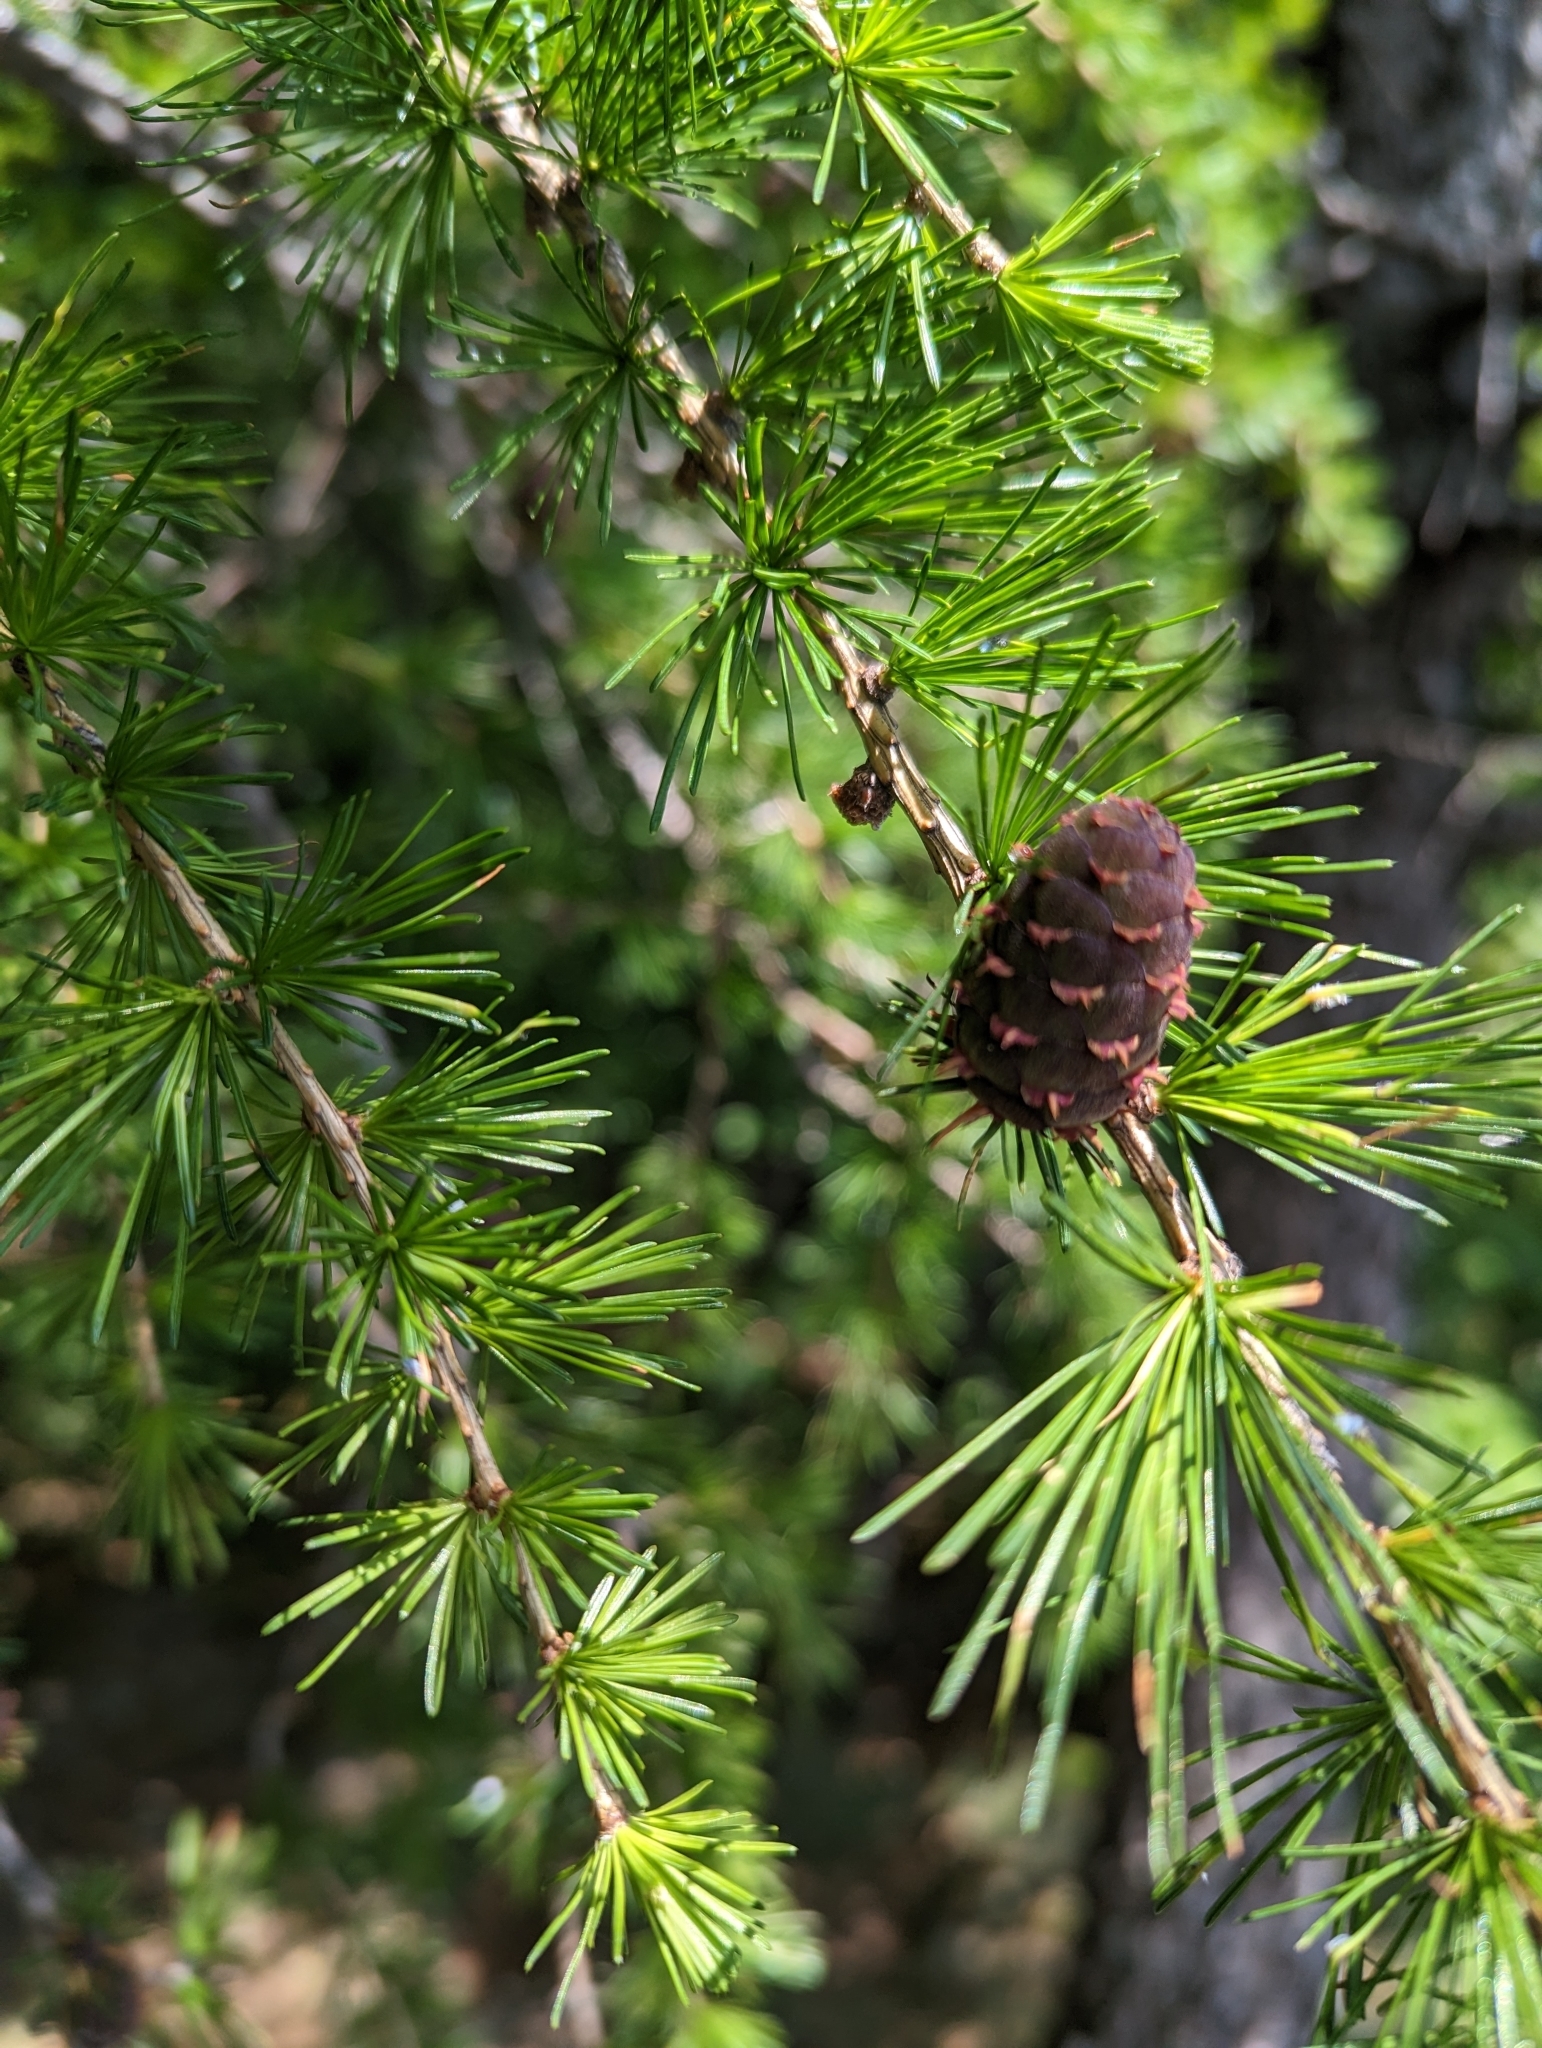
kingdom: Plantae
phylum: Tracheophyta
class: Pinopsida
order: Pinales
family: Pinaceae
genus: Larix
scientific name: Larix decidua
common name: European larch
